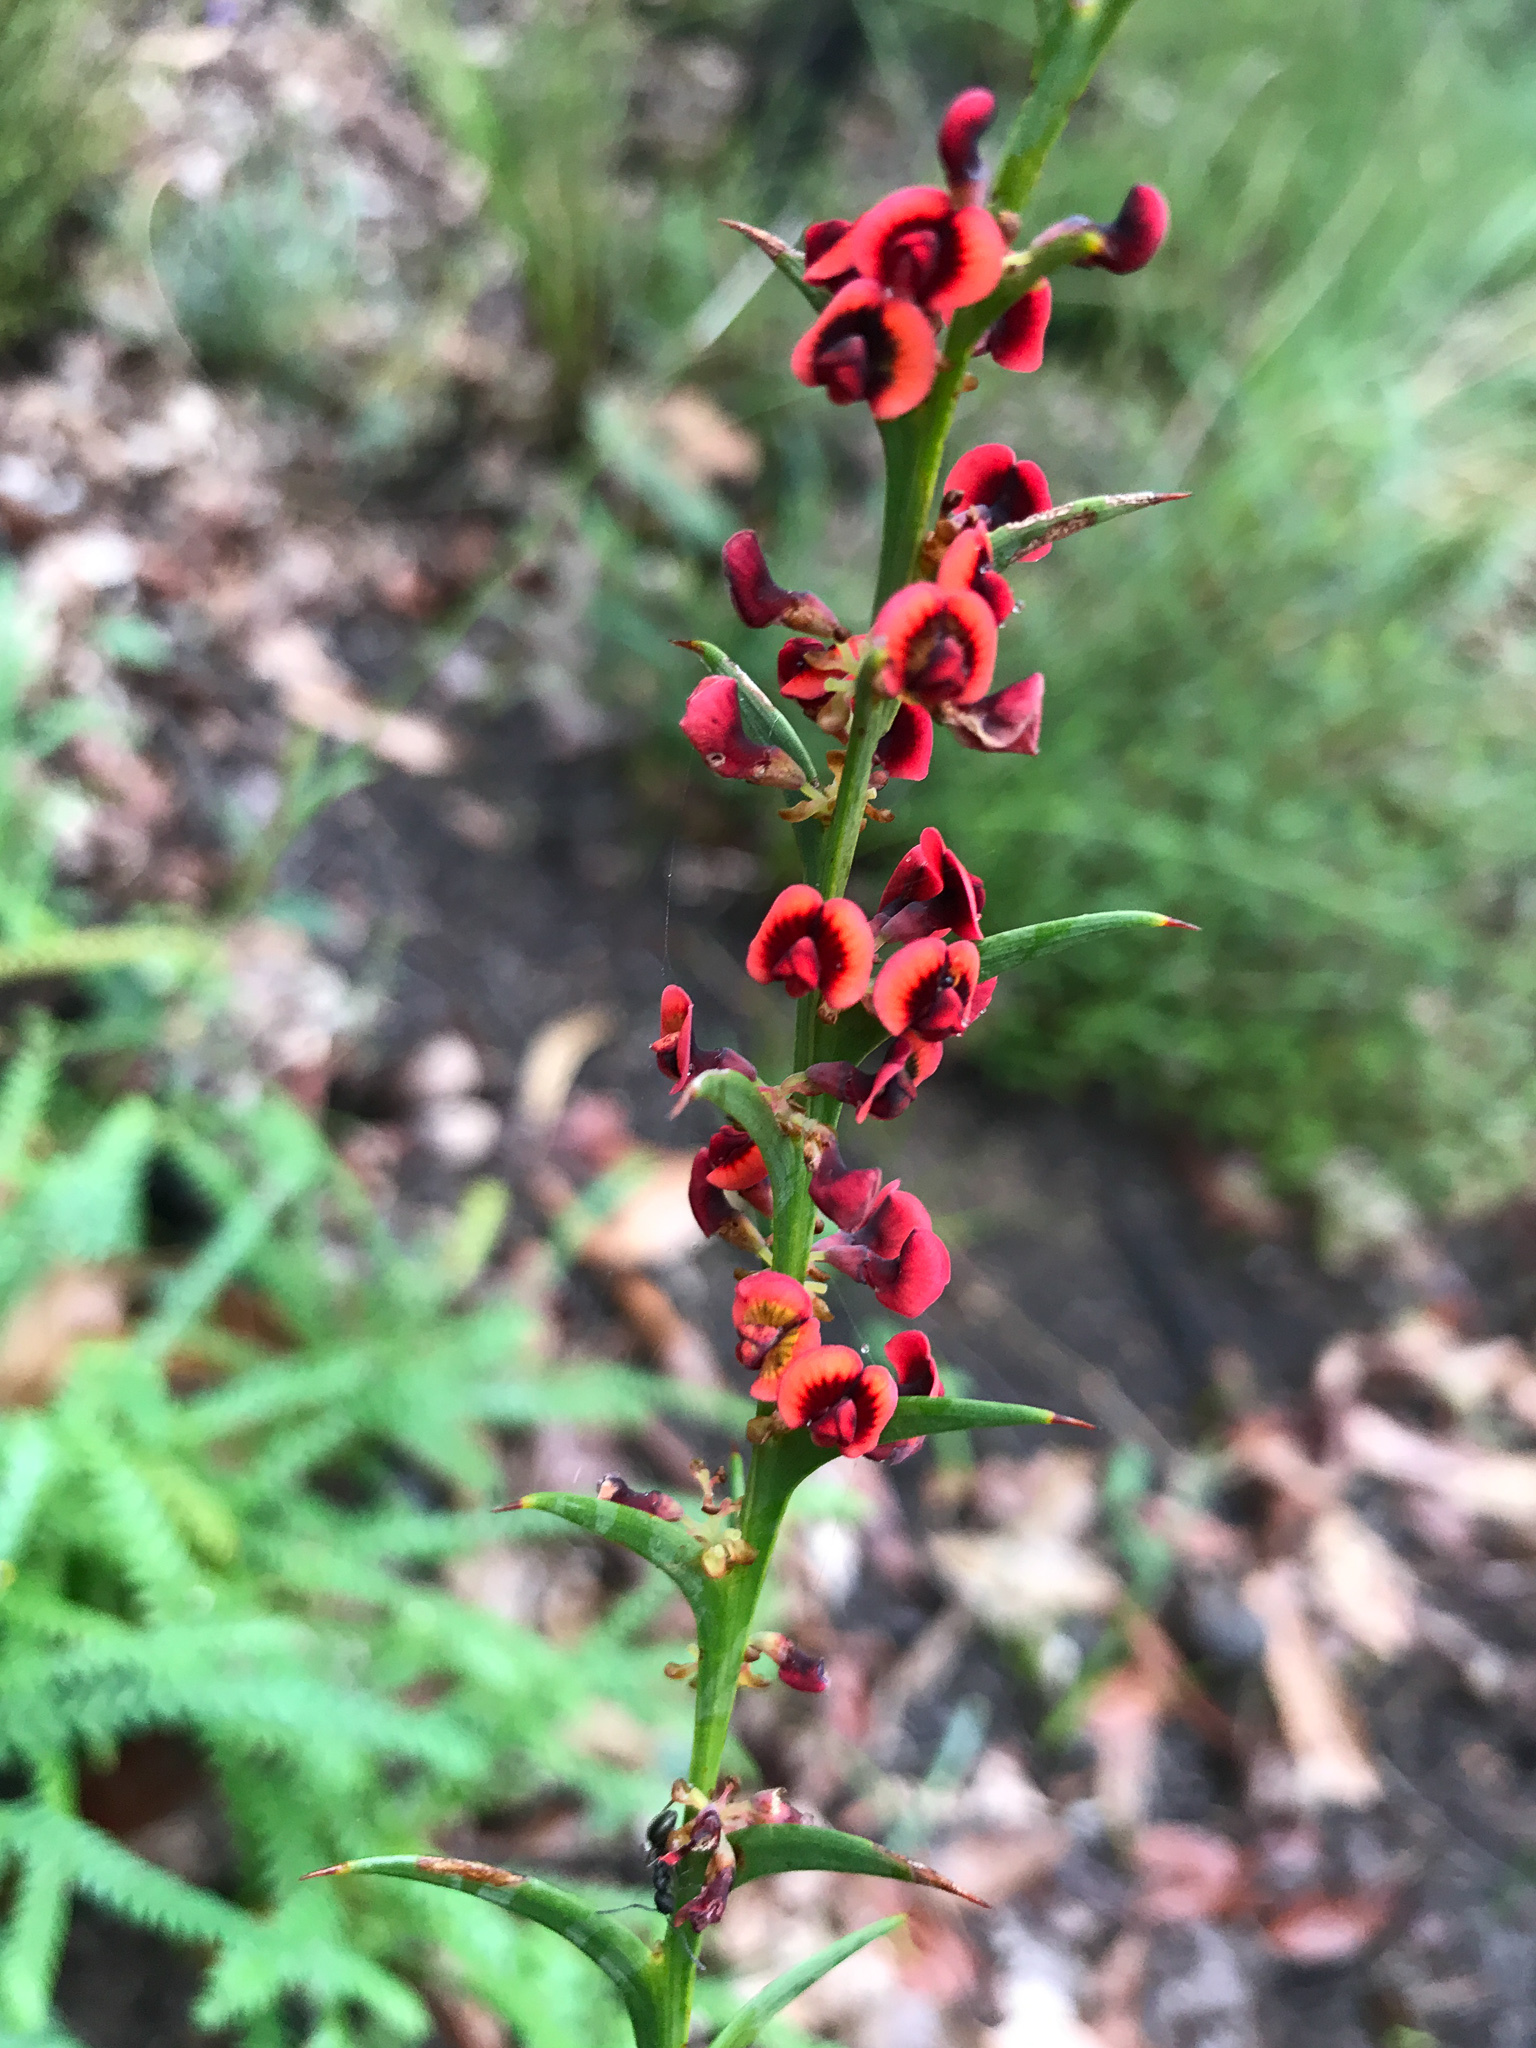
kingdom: Plantae
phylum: Tracheophyta
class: Magnoliopsida
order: Fabales
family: Fabaceae
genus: Daviesia
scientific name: Daviesia decurrens
